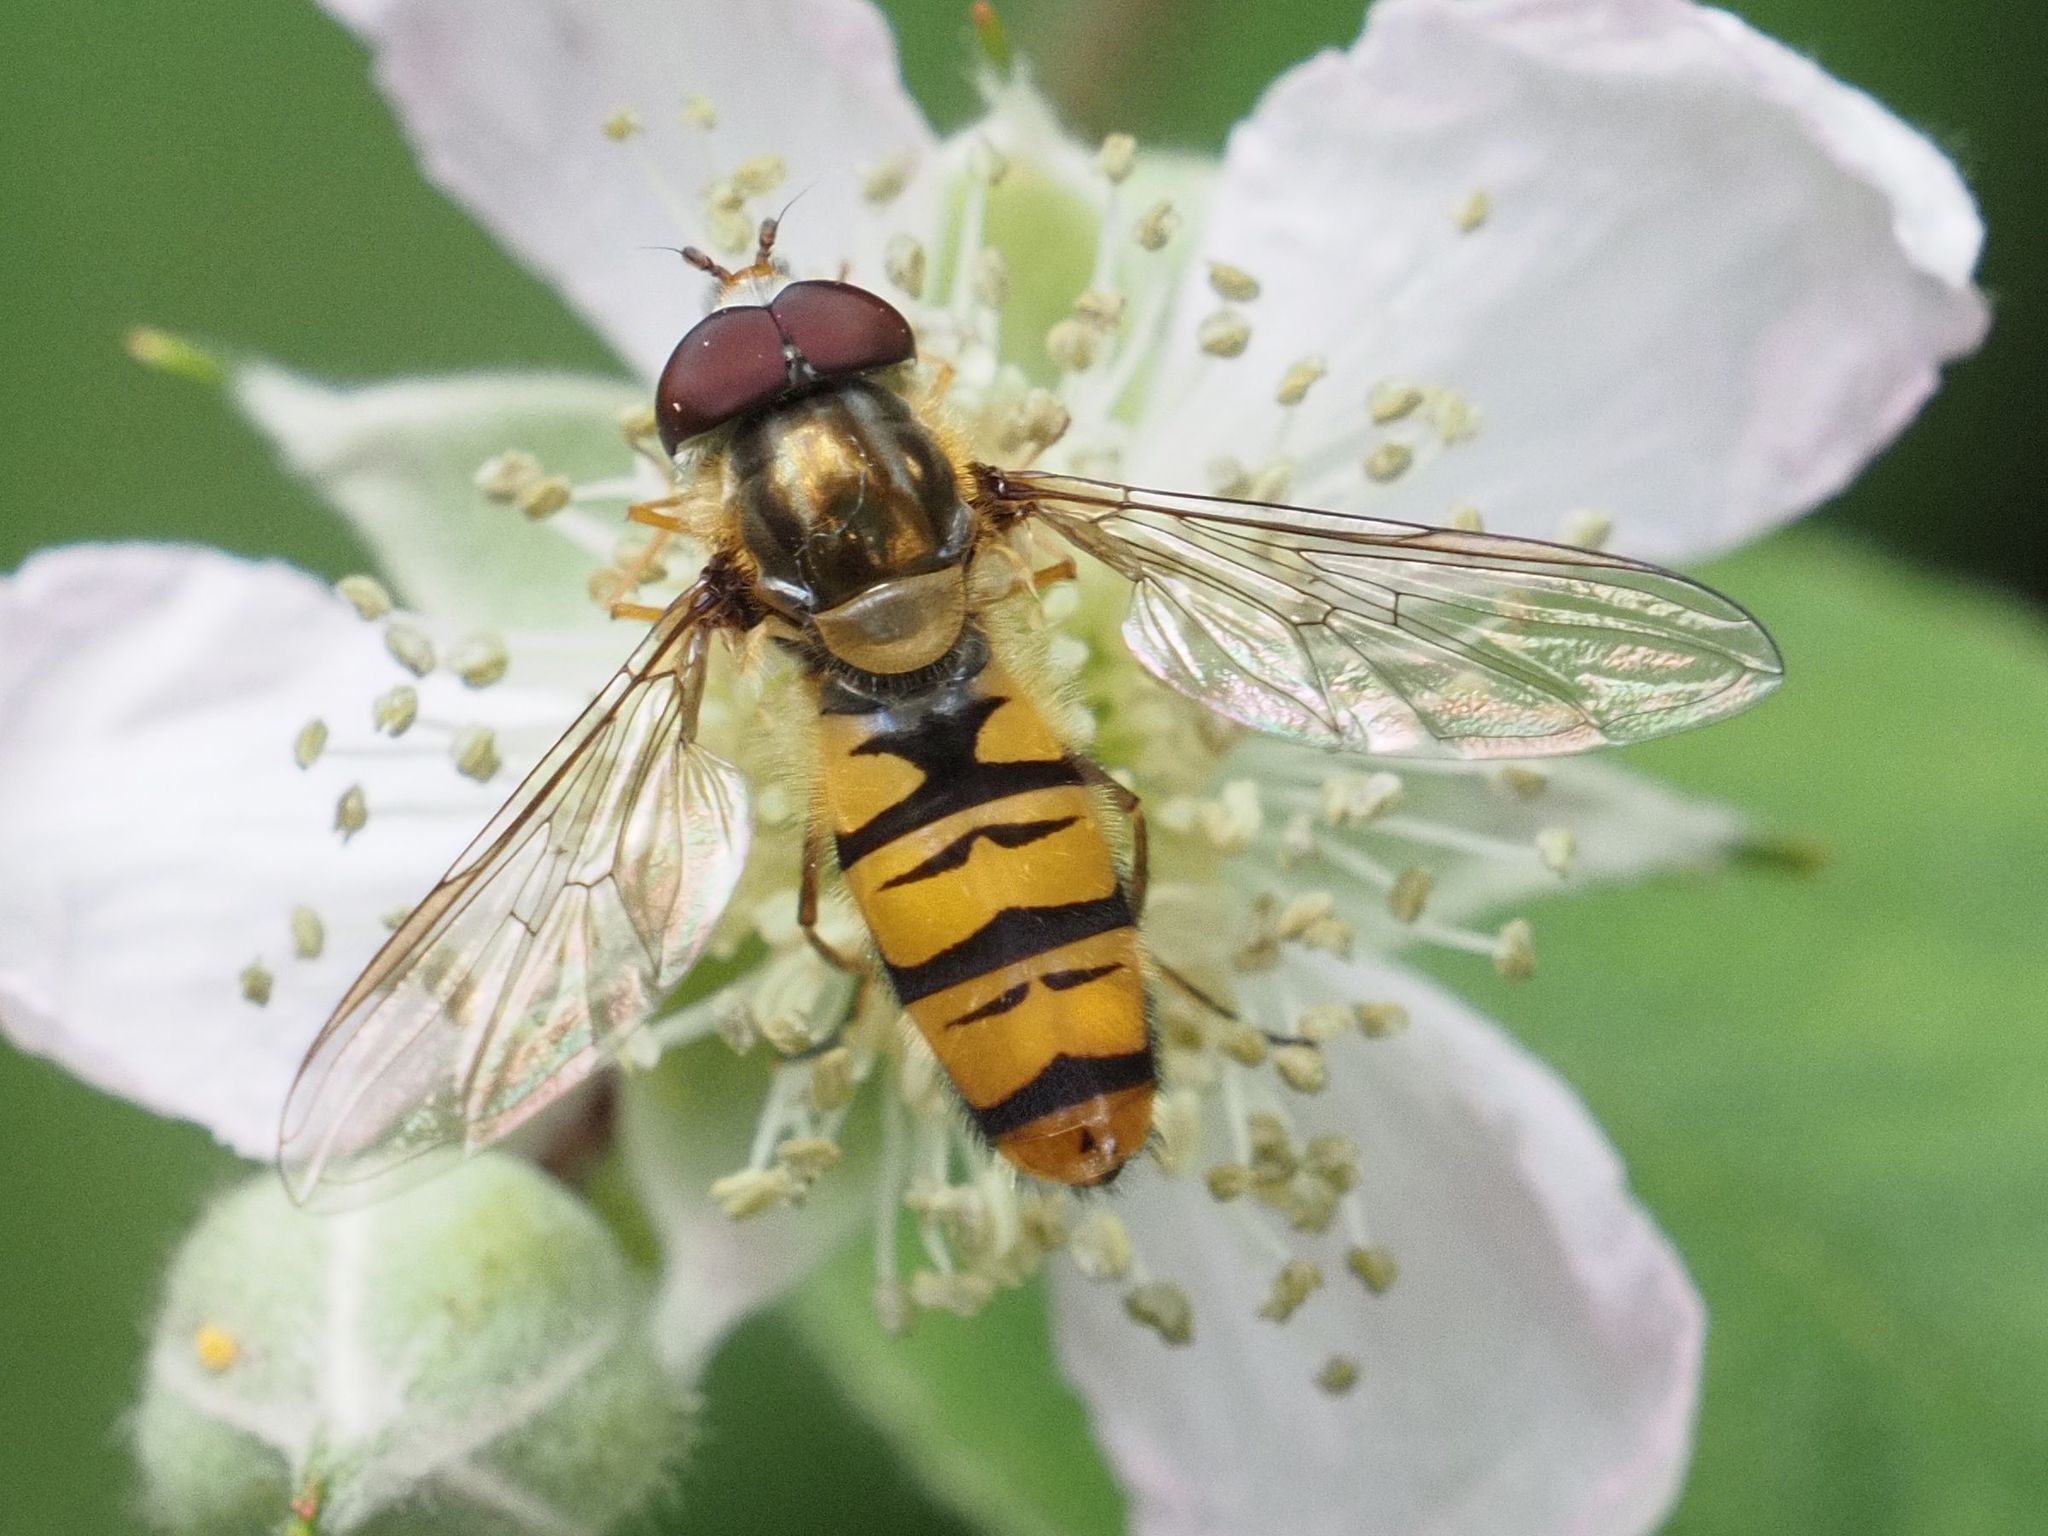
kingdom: Animalia
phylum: Arthropoda
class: Insecta
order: Diptera
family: Syrphidae
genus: Episyrphus
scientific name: Episyrphus balteatus
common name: Marmalade hoverfly
